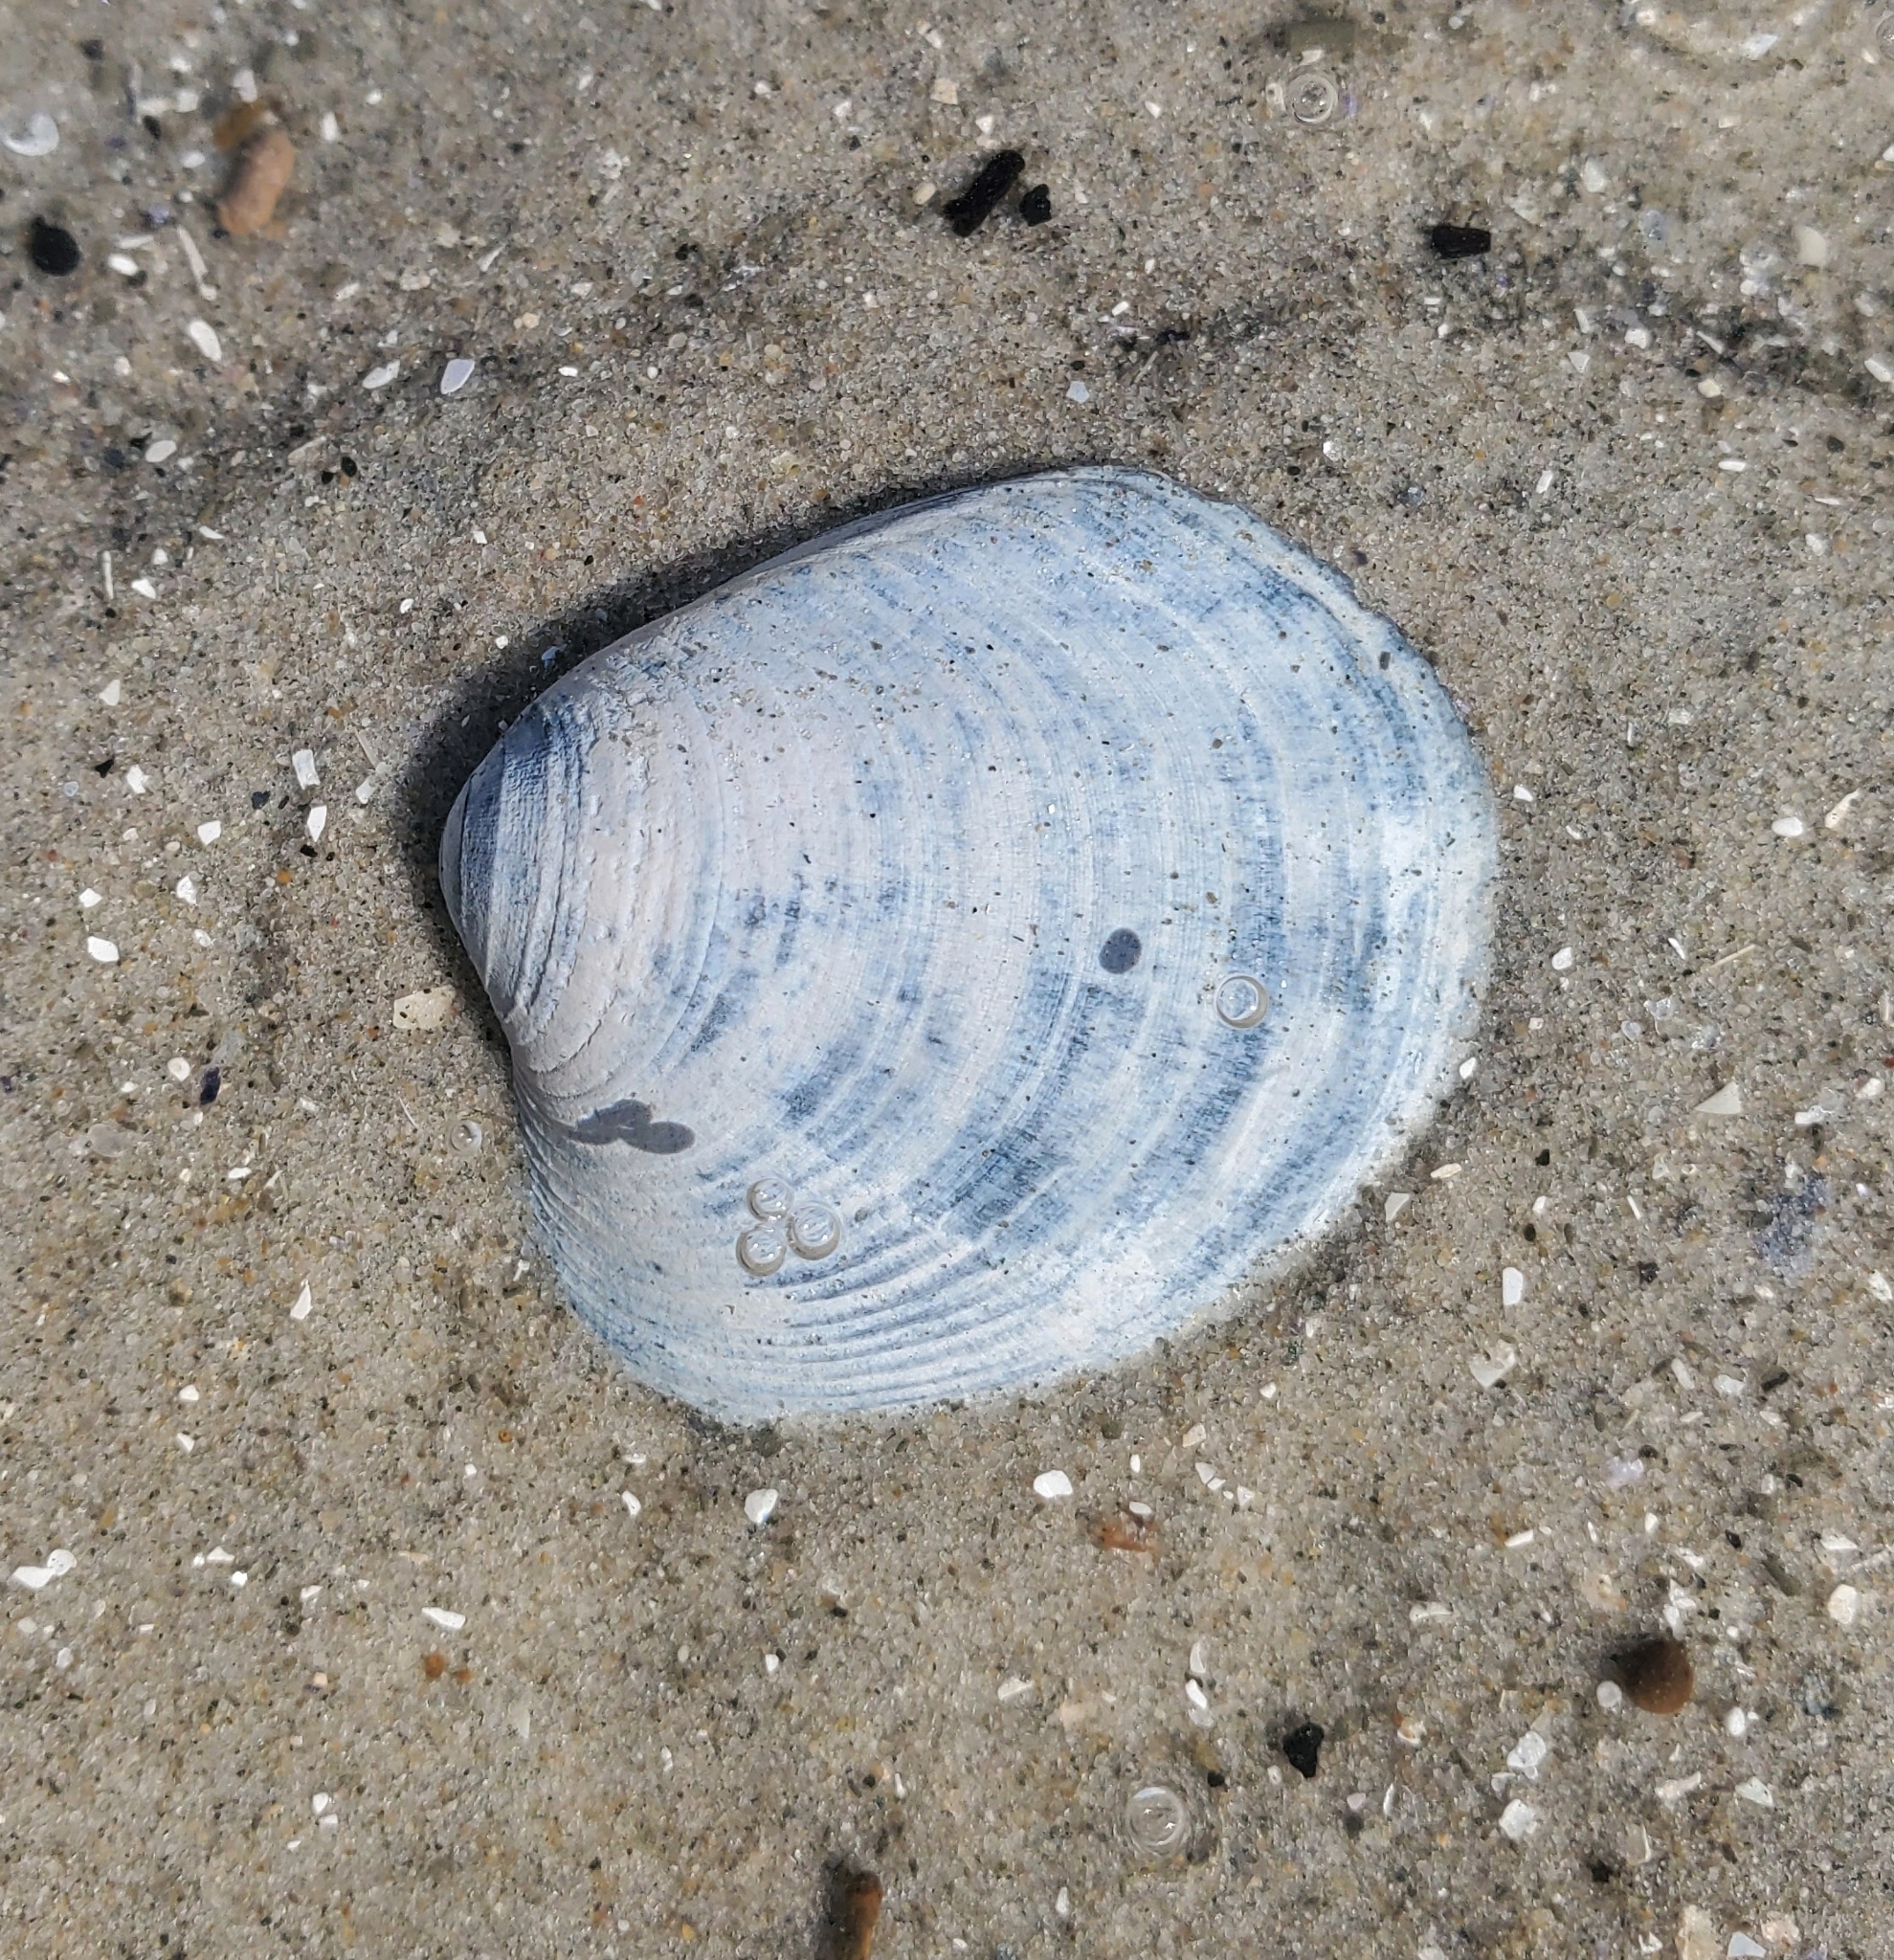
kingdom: Animalia
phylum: Mollusca
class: Bivalvia
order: Venerida
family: Veneridae
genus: Mercenaria
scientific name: Mercenaria mercenaria
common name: American hard-shelled clam
